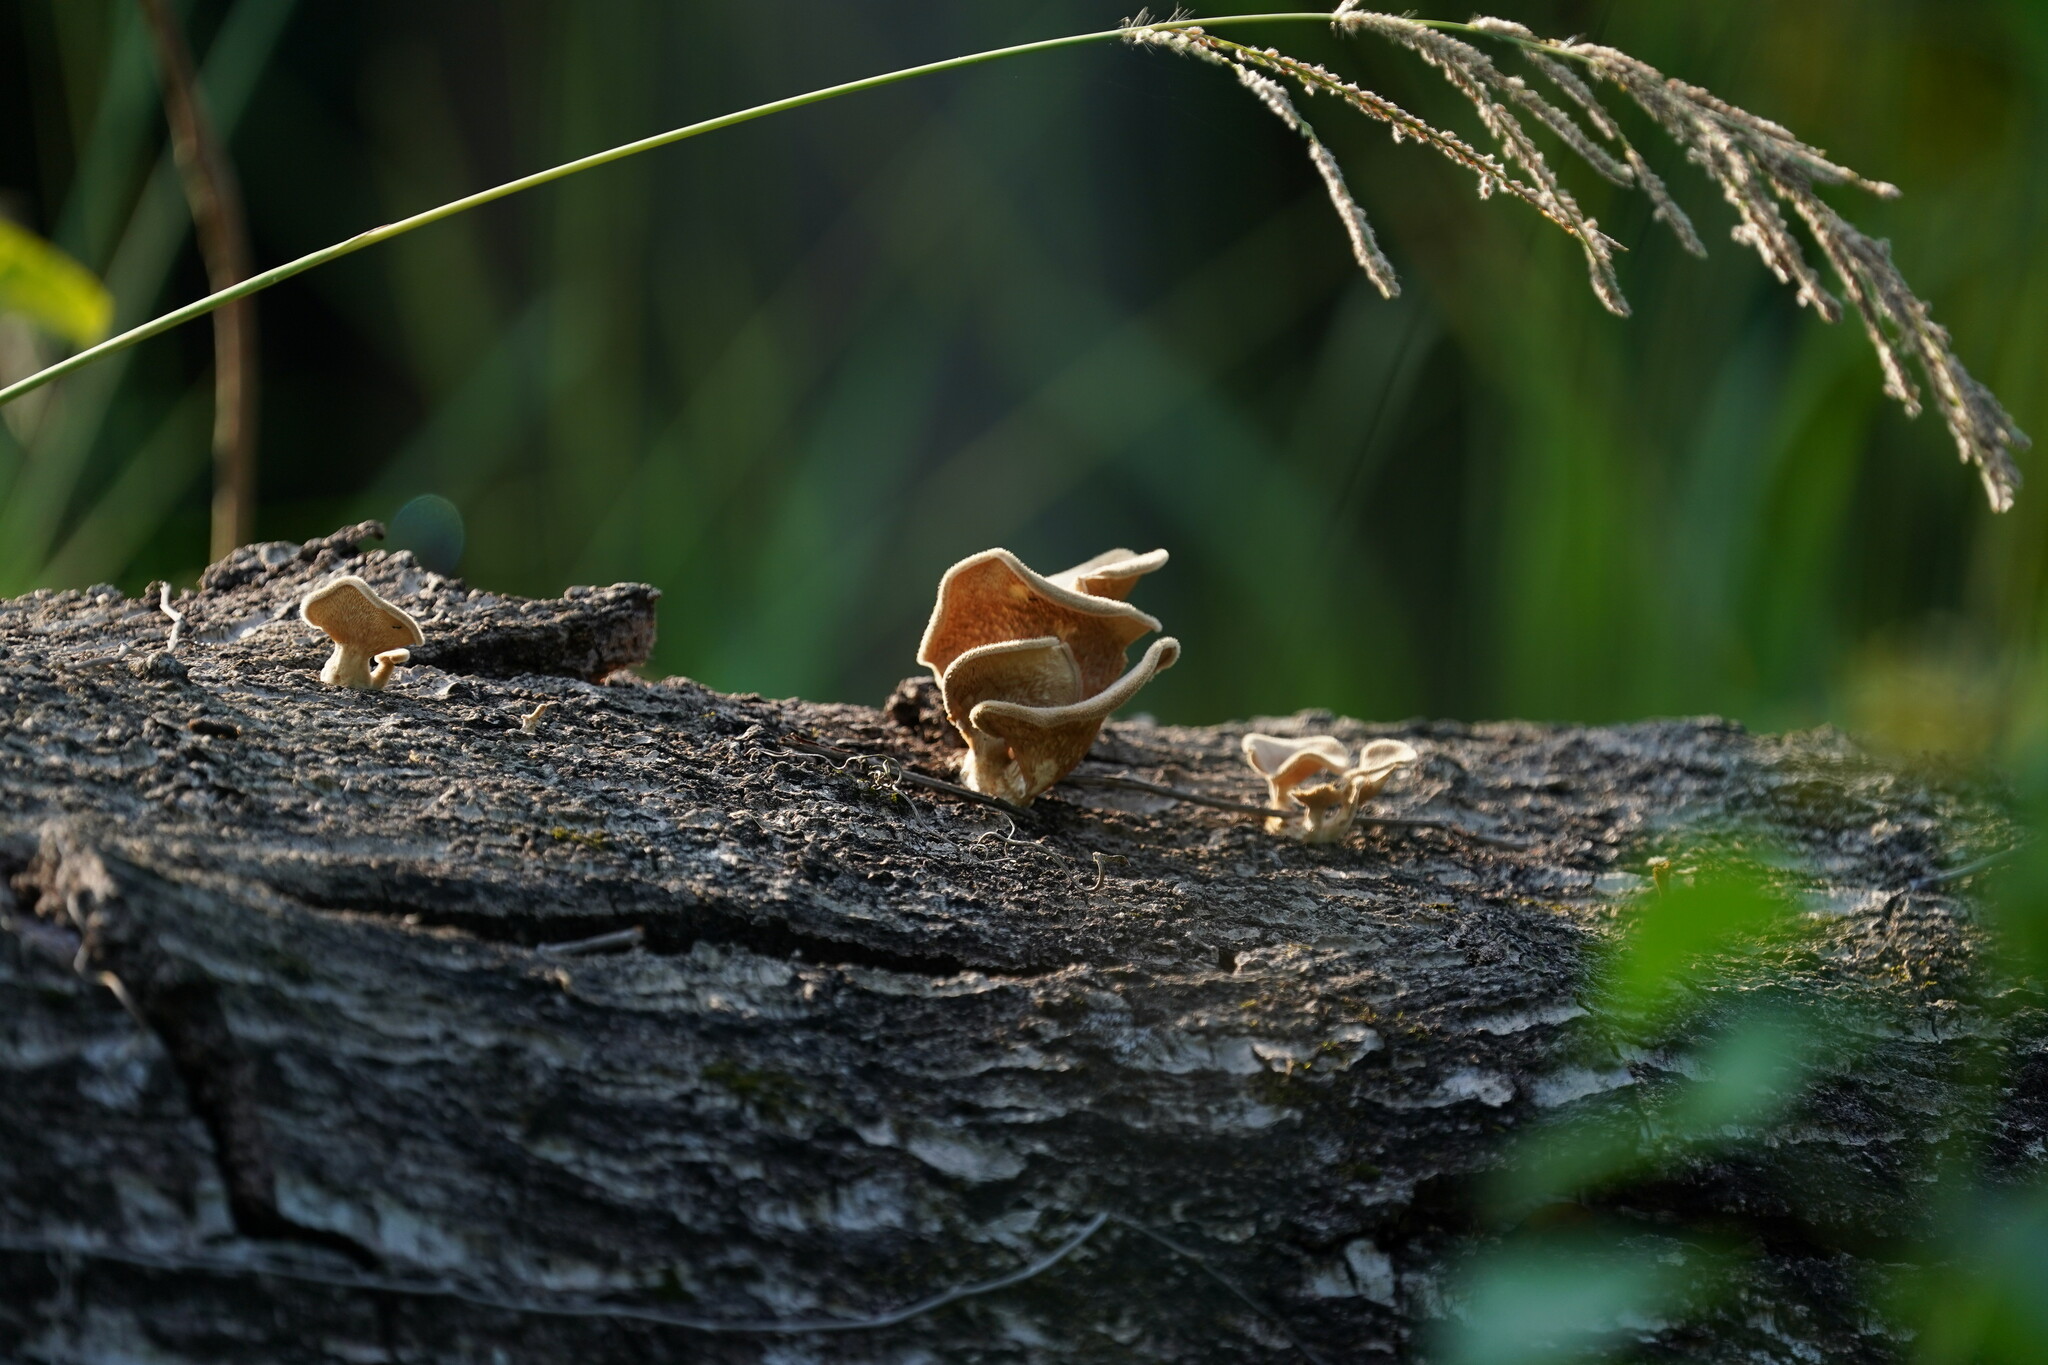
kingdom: Fungi
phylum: Basidiomycota
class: Agaricomycetes
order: Polyporales
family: Panaceae
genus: Panus
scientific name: Panus neostrigosus
